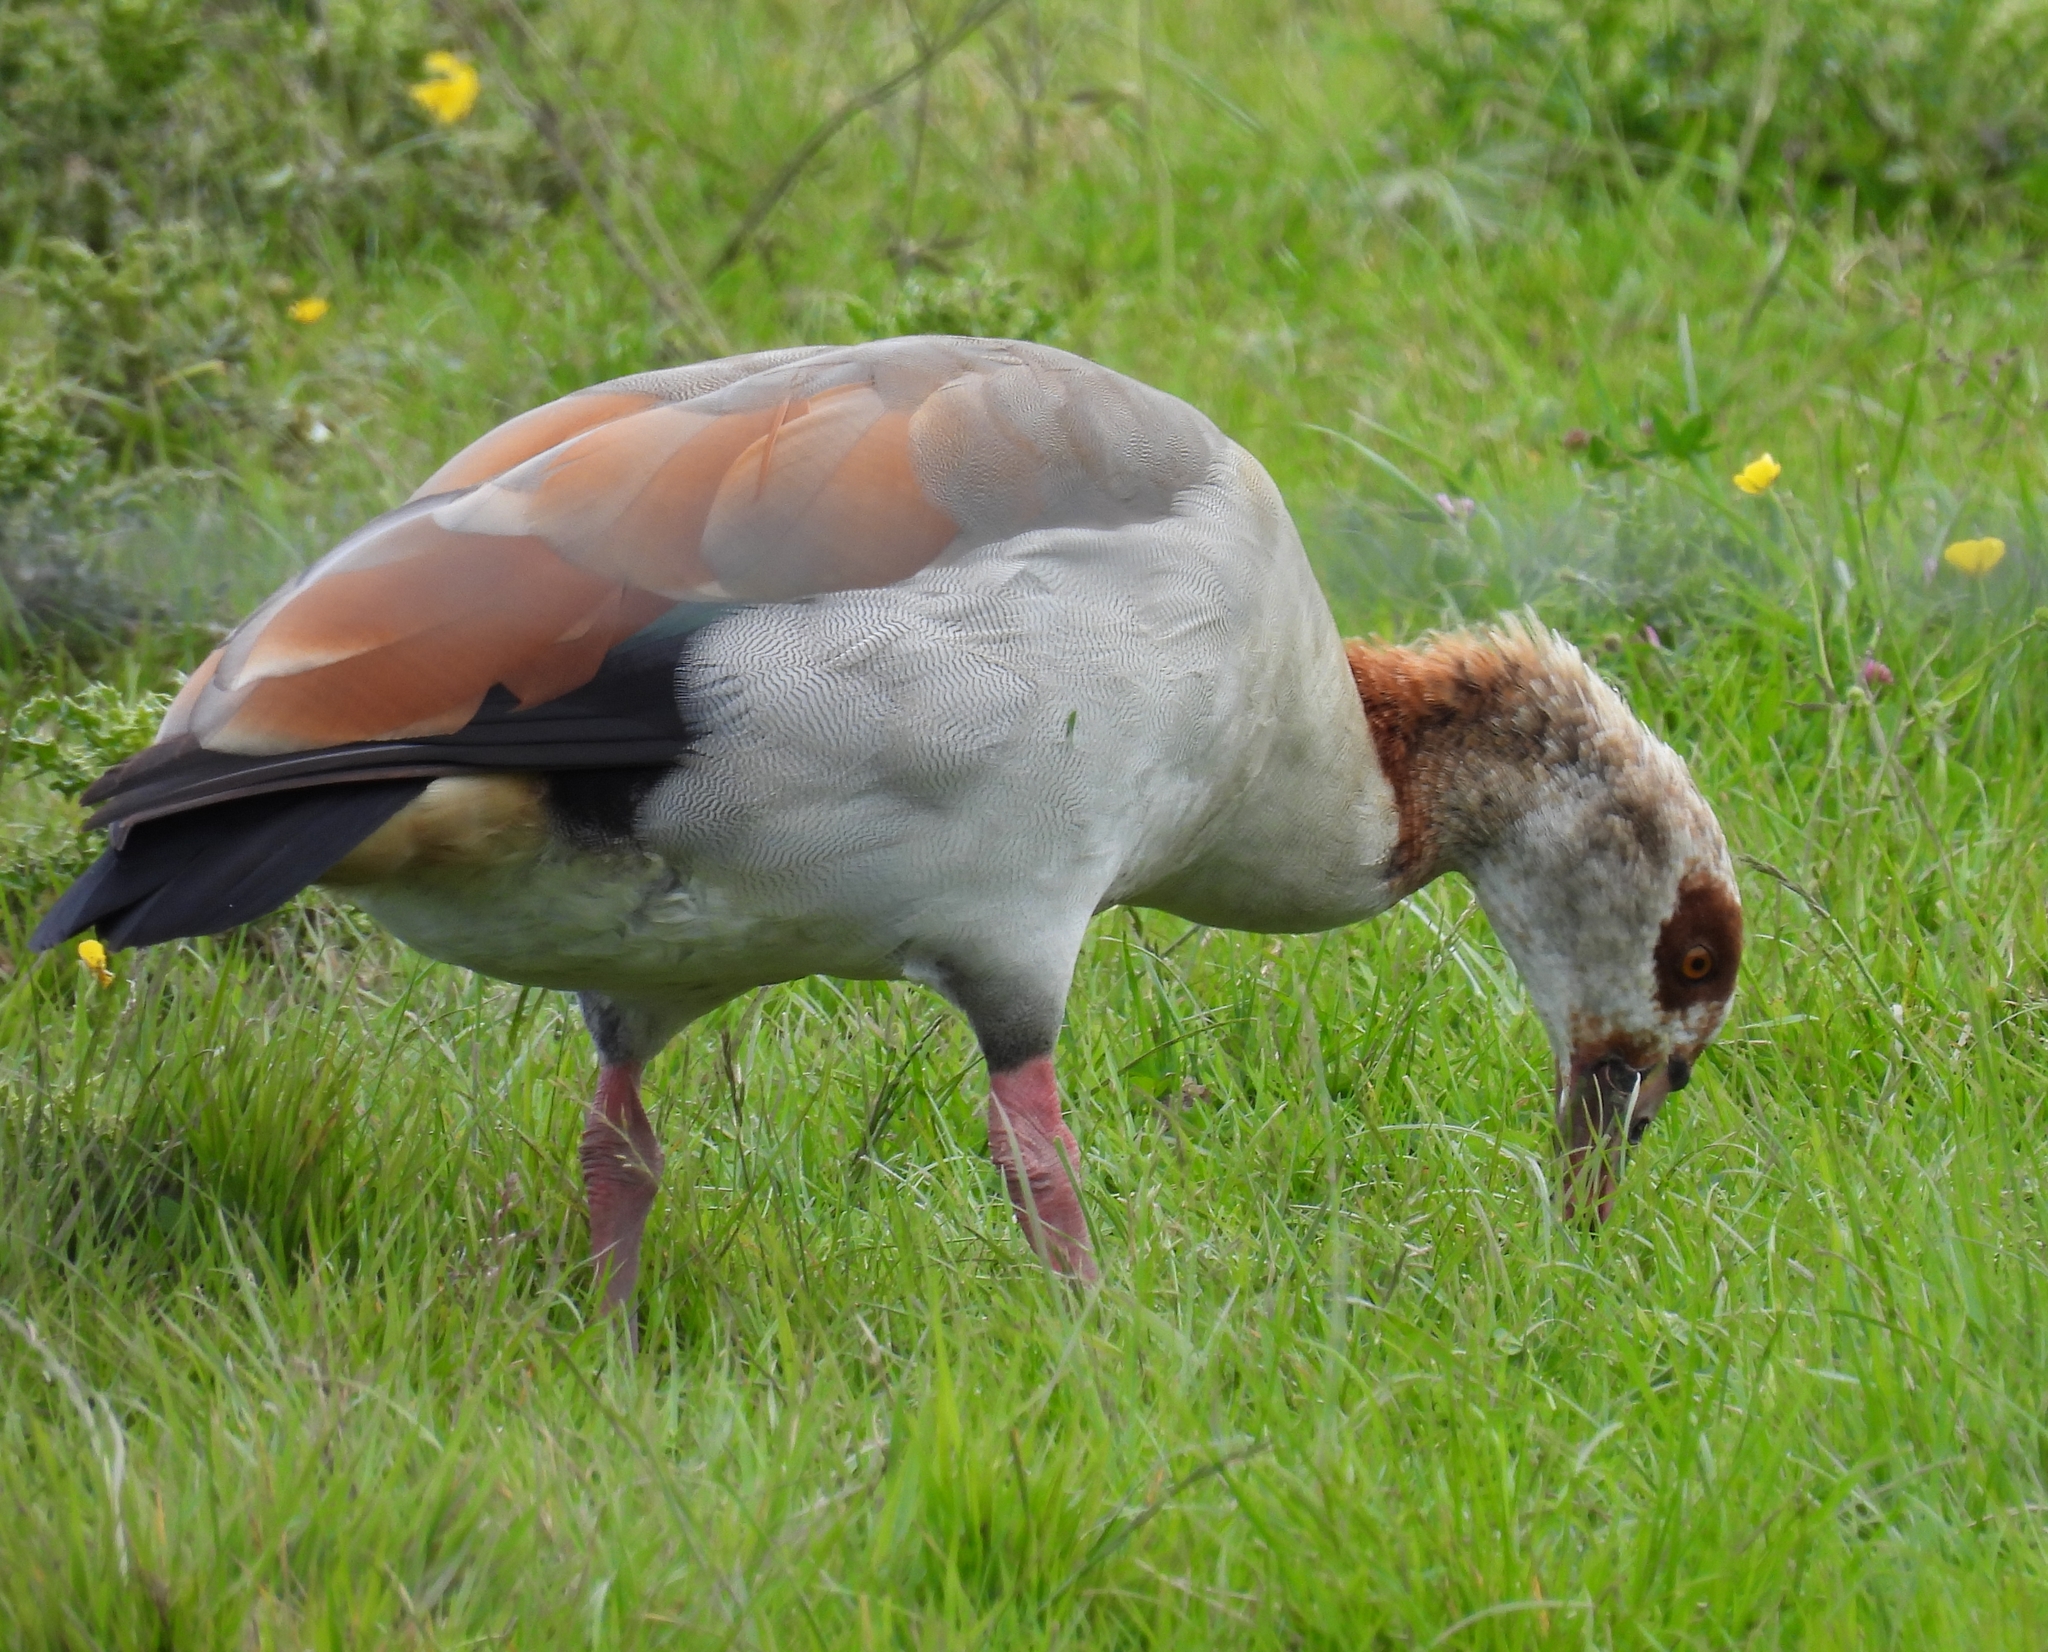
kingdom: Animalia
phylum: Chordata
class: Aves
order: Anseriformes
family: Anatidae
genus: Alopochen
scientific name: Alopochen aegyptiaca
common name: Egyptian goose
